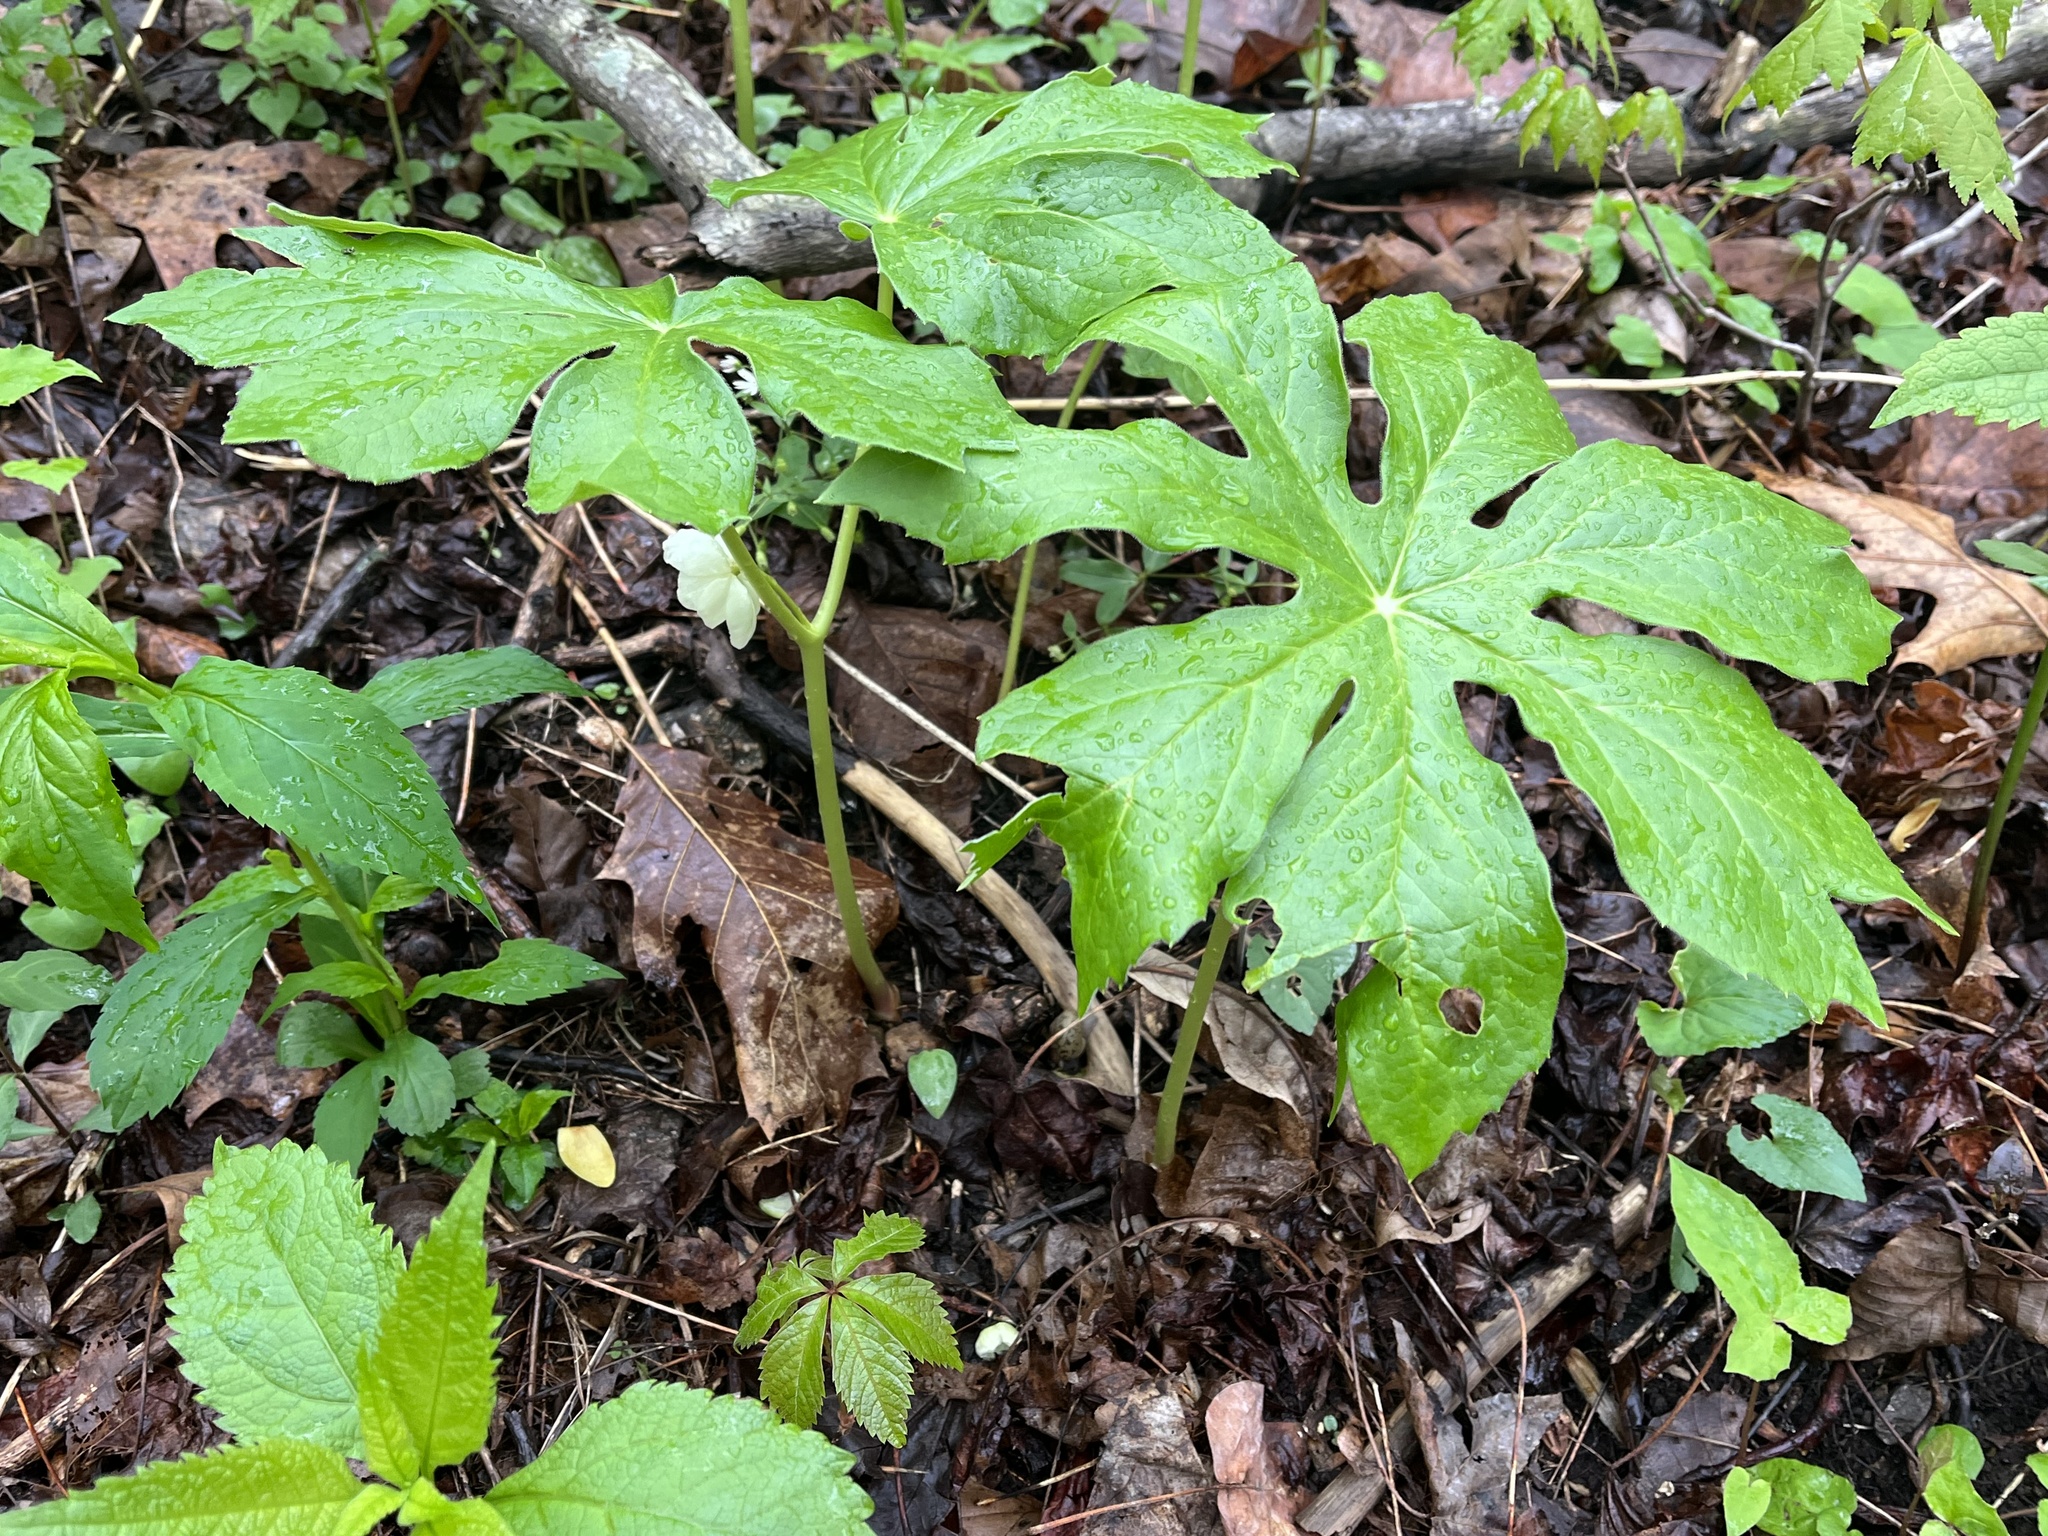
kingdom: Plantae
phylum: Tracheophyta
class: Magnoliopsida
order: Ranunculales
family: Berberidaceae
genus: Podophyllum
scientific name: Podophyllum peltatum
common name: Wild mandrake
